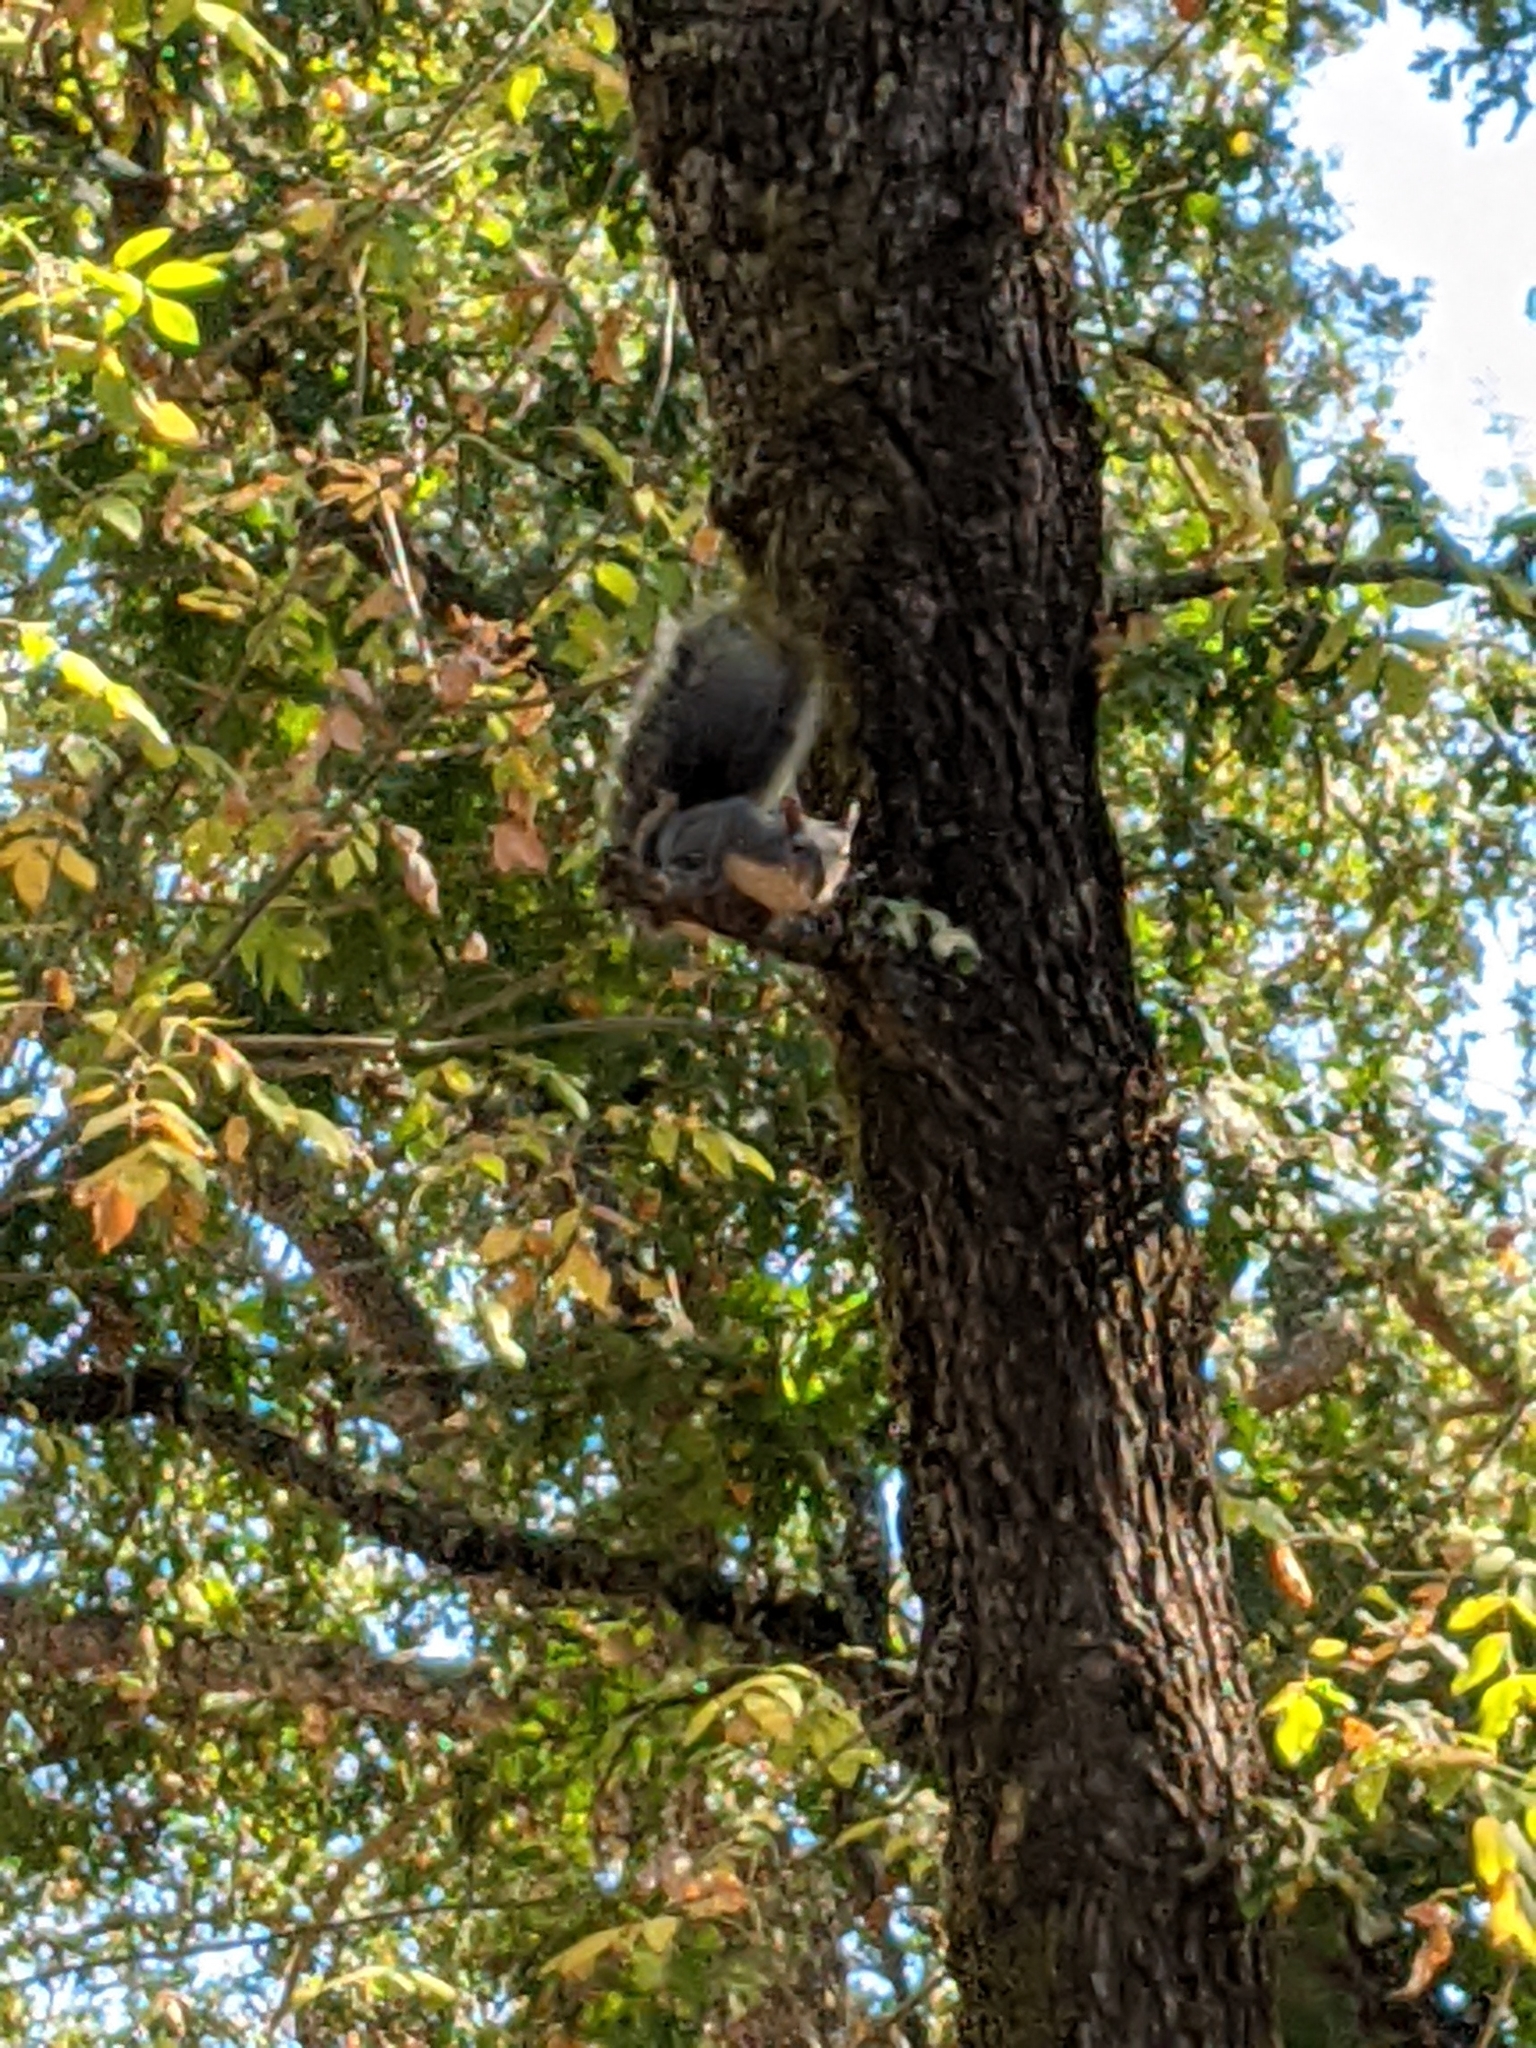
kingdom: Animalia
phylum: Chordata
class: Mammalia
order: Rodentia
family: Sciuridae
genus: Sciurus
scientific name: Sciurus griseus
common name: Western gray squirrel
